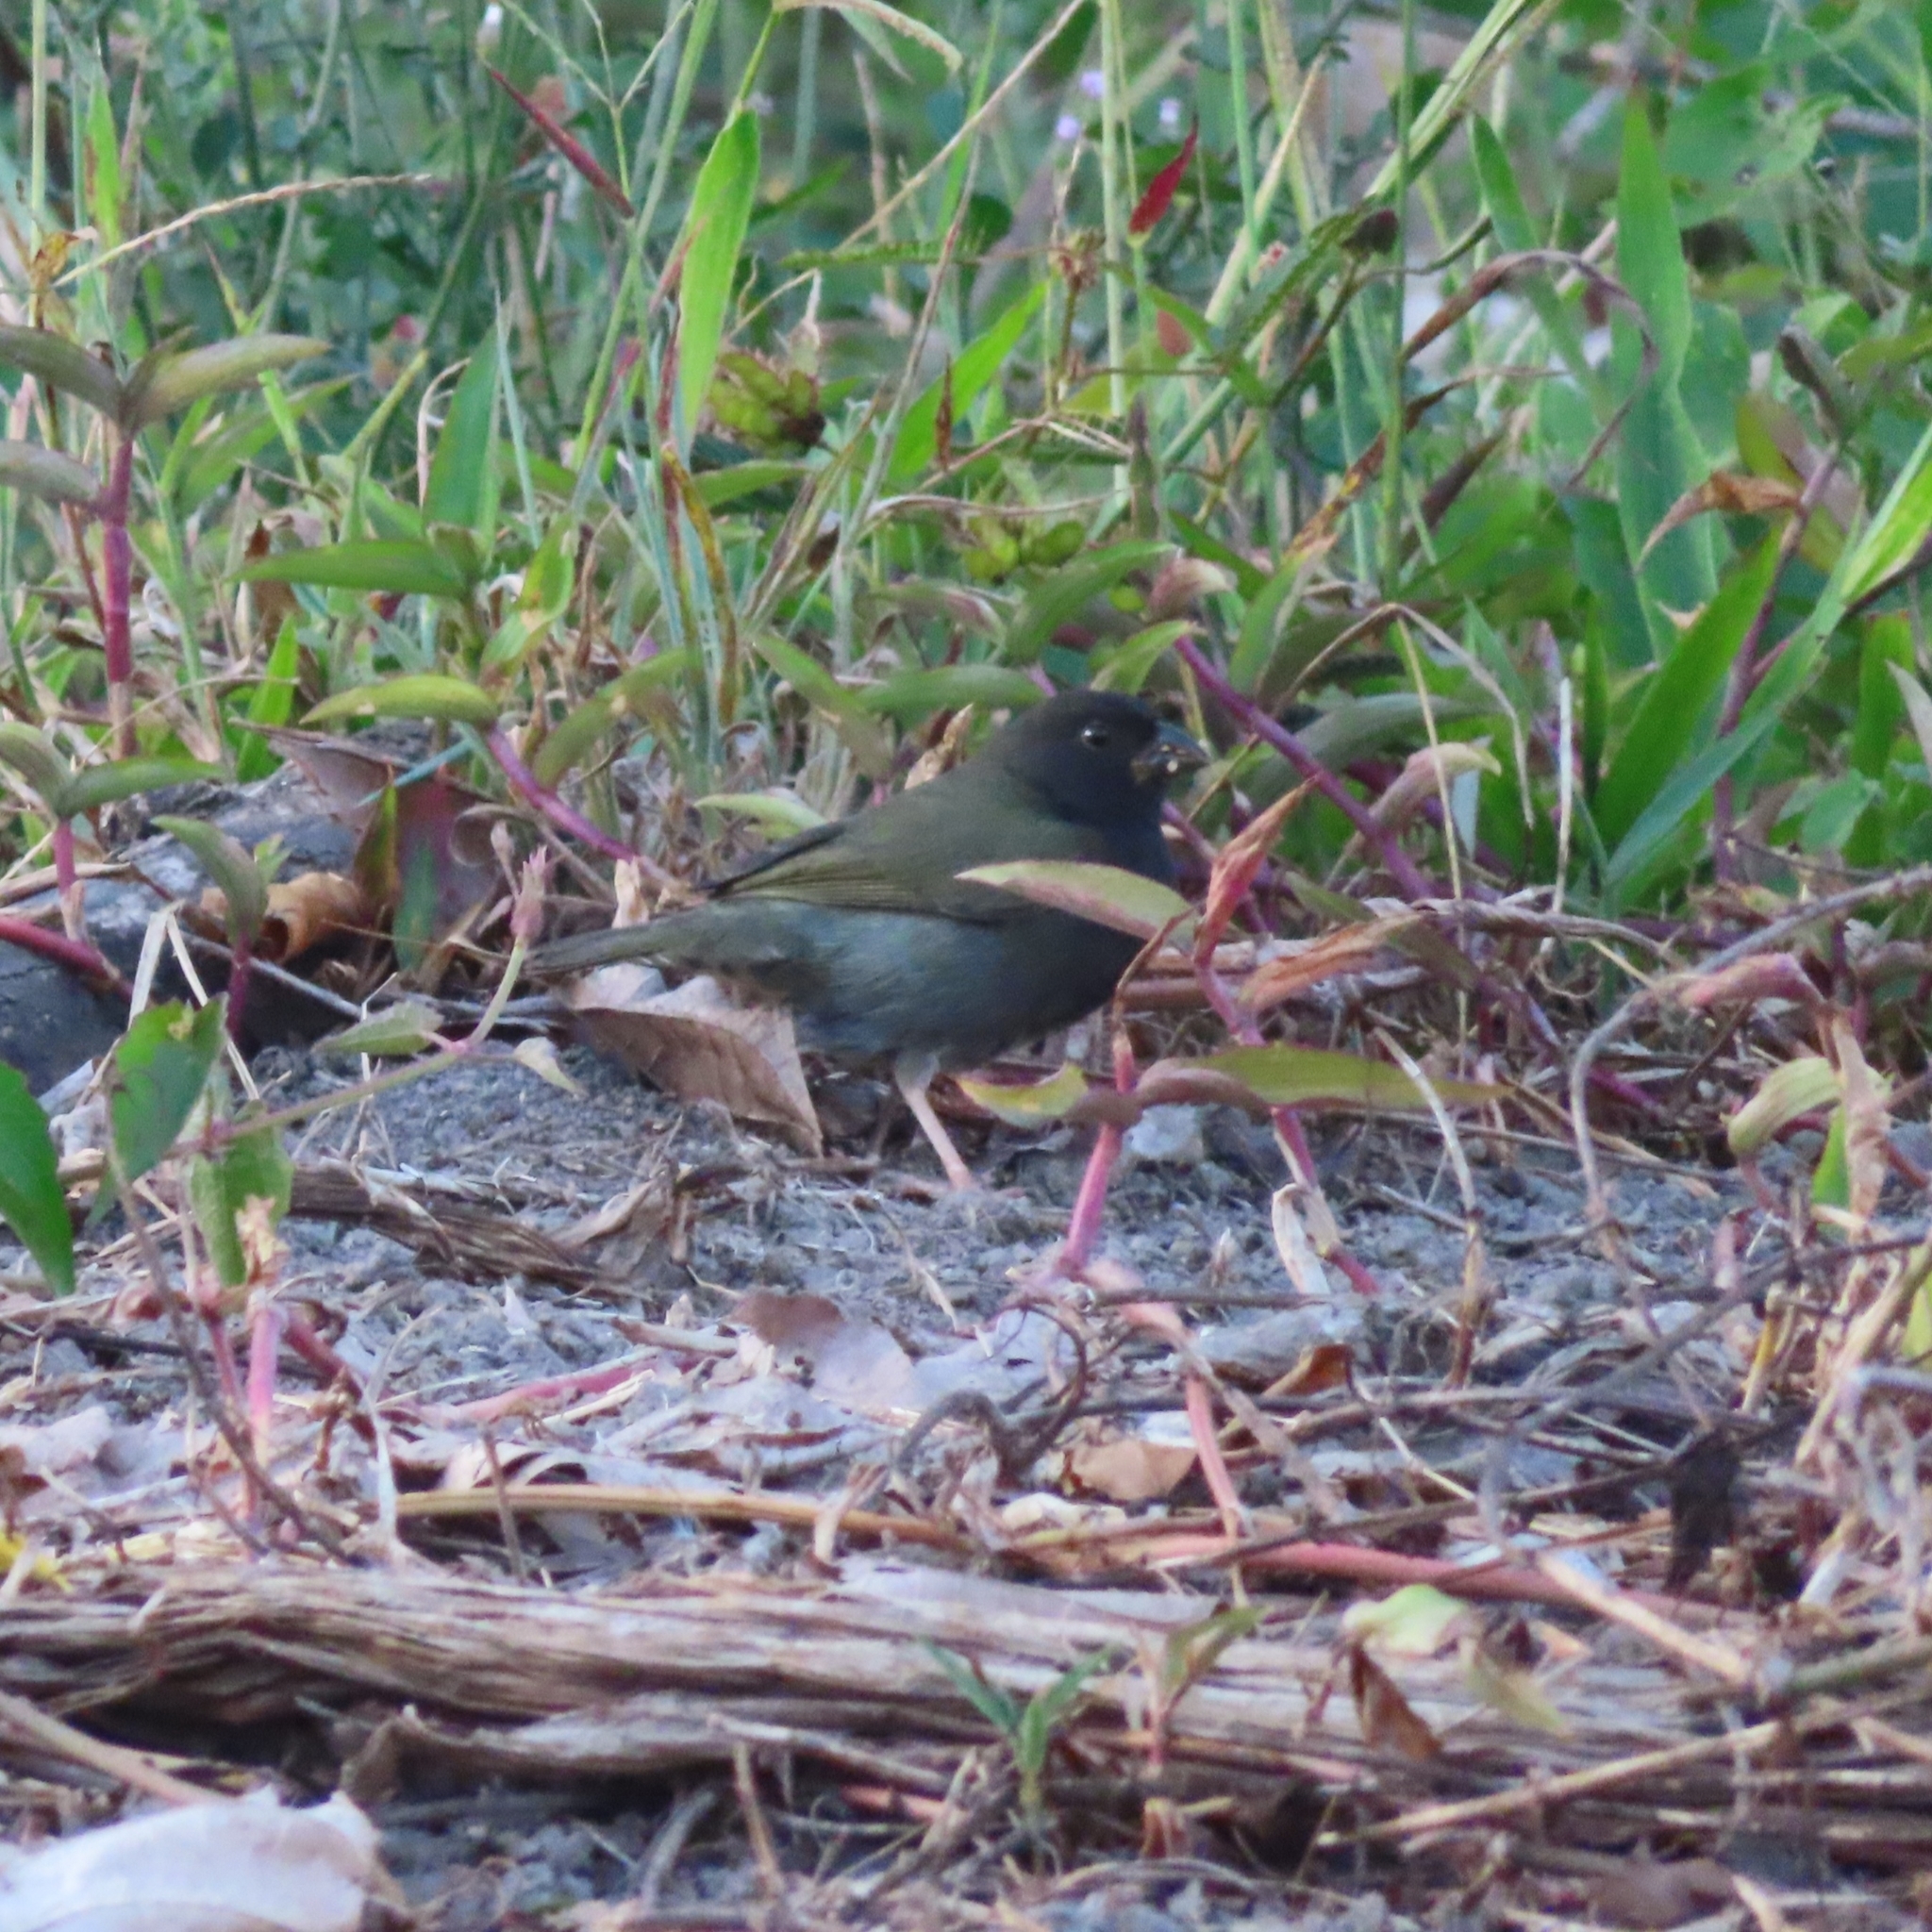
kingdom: Animalia
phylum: Chordata
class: Aves
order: Passeriformes
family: Thraupidae
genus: Melanospiza
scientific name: Melanospiza bicolor
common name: Black-faced grassquit
